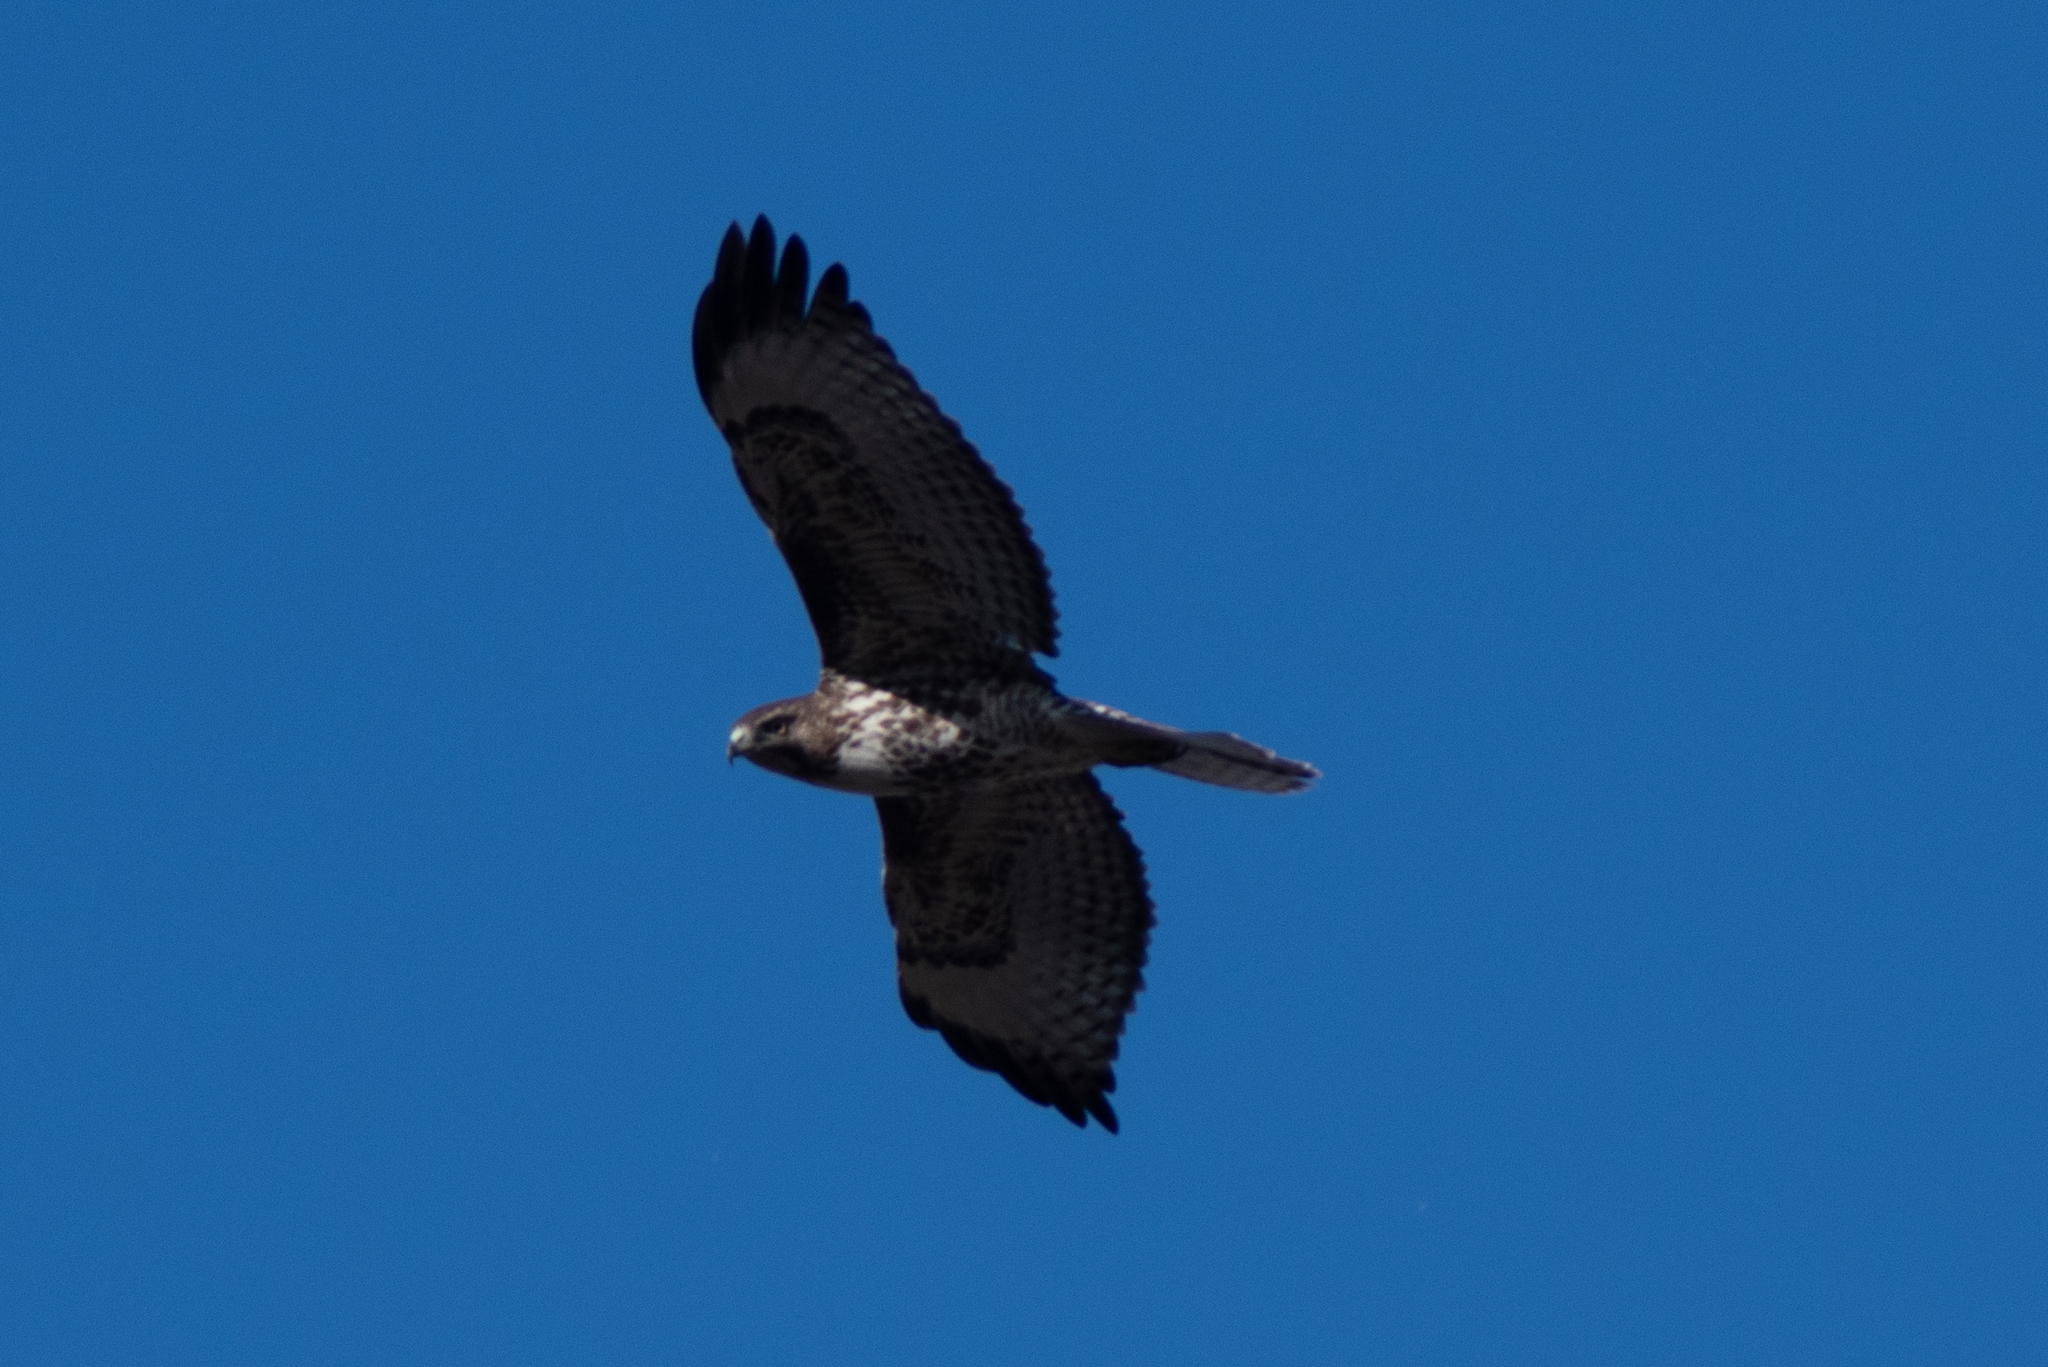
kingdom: Animalia
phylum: Chordata
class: Aves
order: Accipitriformes
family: Accipitridae
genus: Buteo
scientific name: Buteo jamaicensis
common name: Red-tailed hawk
